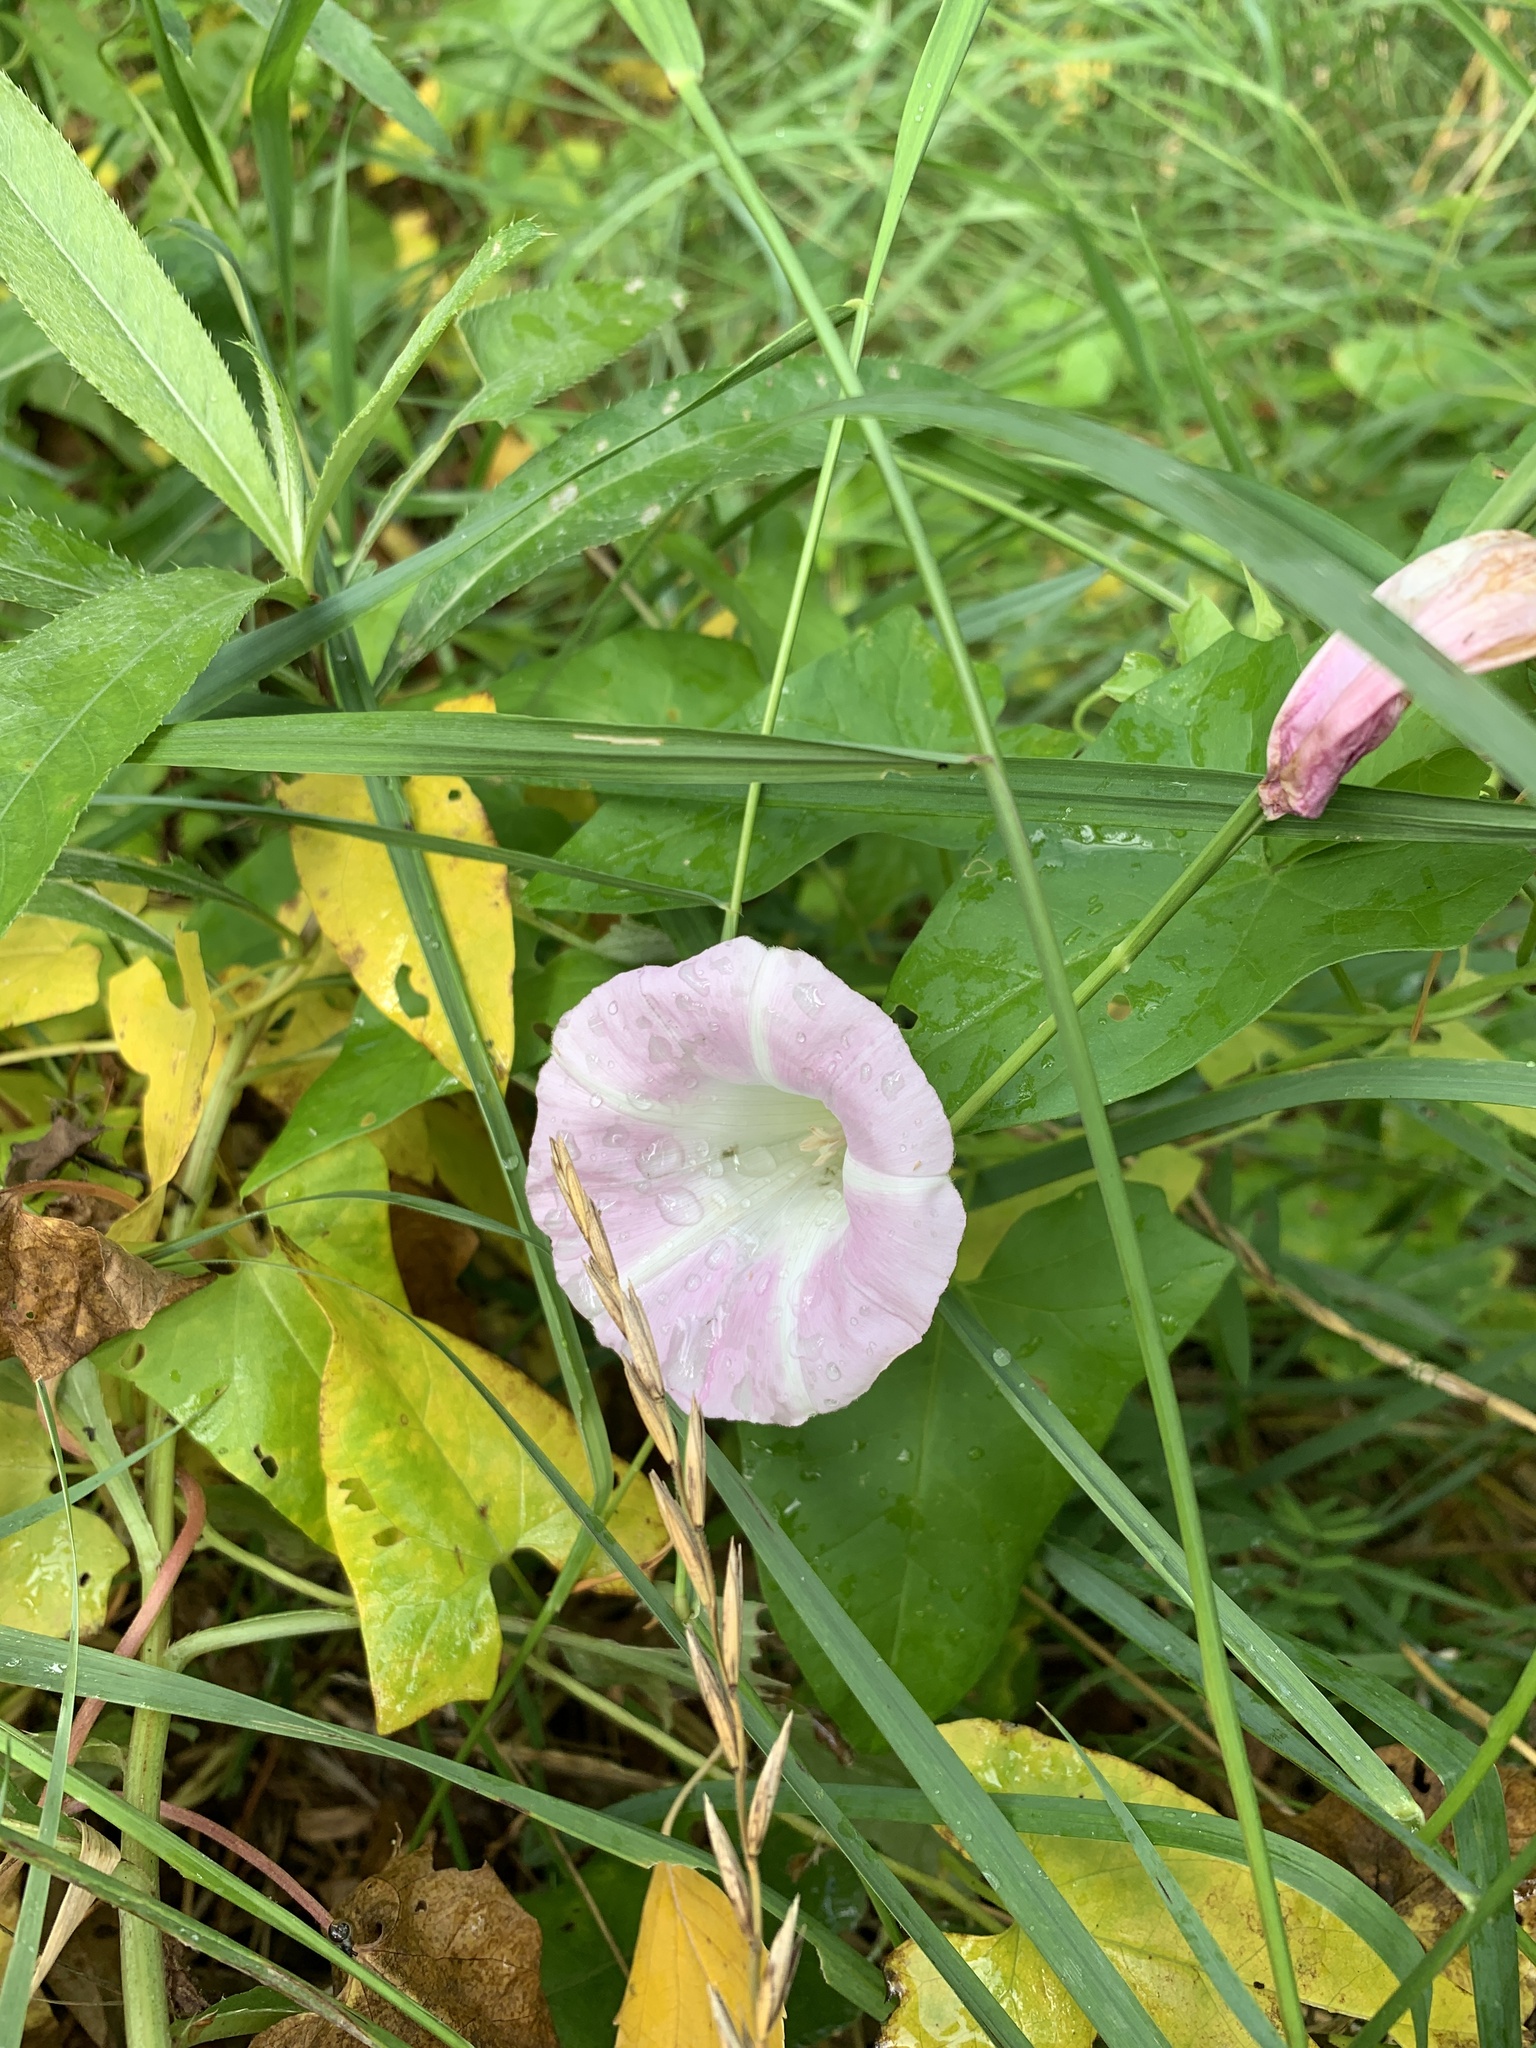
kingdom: Plantae
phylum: Tracheophyta
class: Magnoliopsida
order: Solanales
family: Convolvulaceae
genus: Calystegia
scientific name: Calystegia sepium
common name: Hedge bindweed
